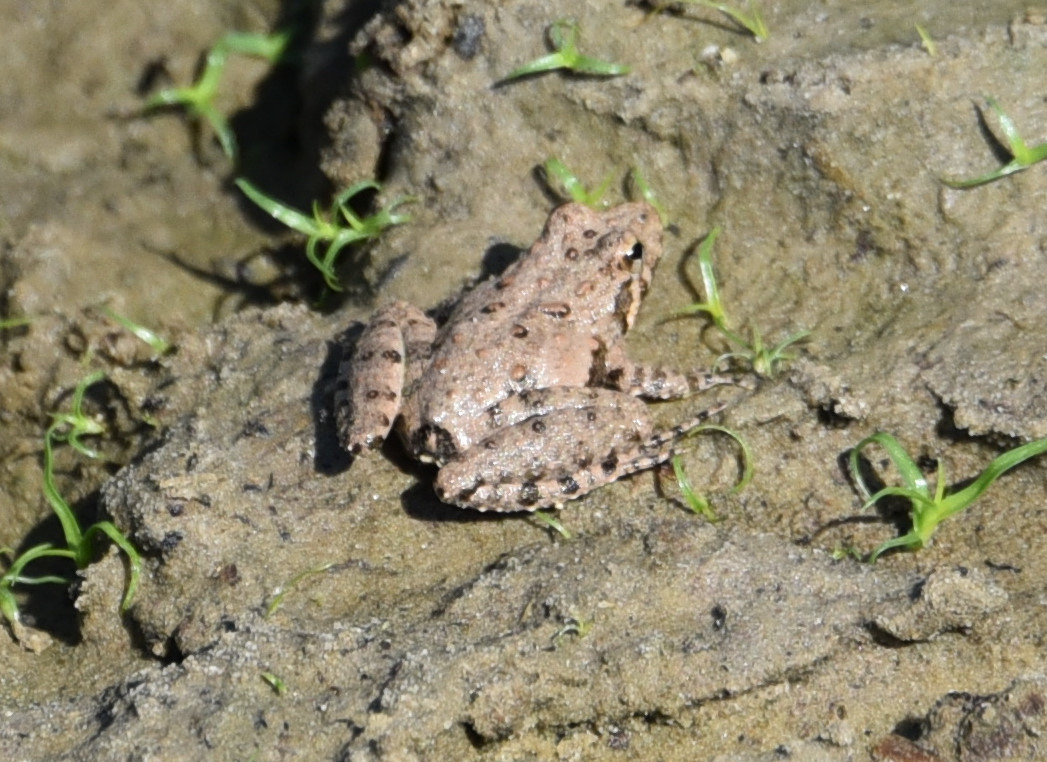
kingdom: Animalia
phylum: Chordata
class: Amphibia
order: Anura
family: Hylidae
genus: Acris
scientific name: Acris blanchardi
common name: Blanchard's cricket frog
